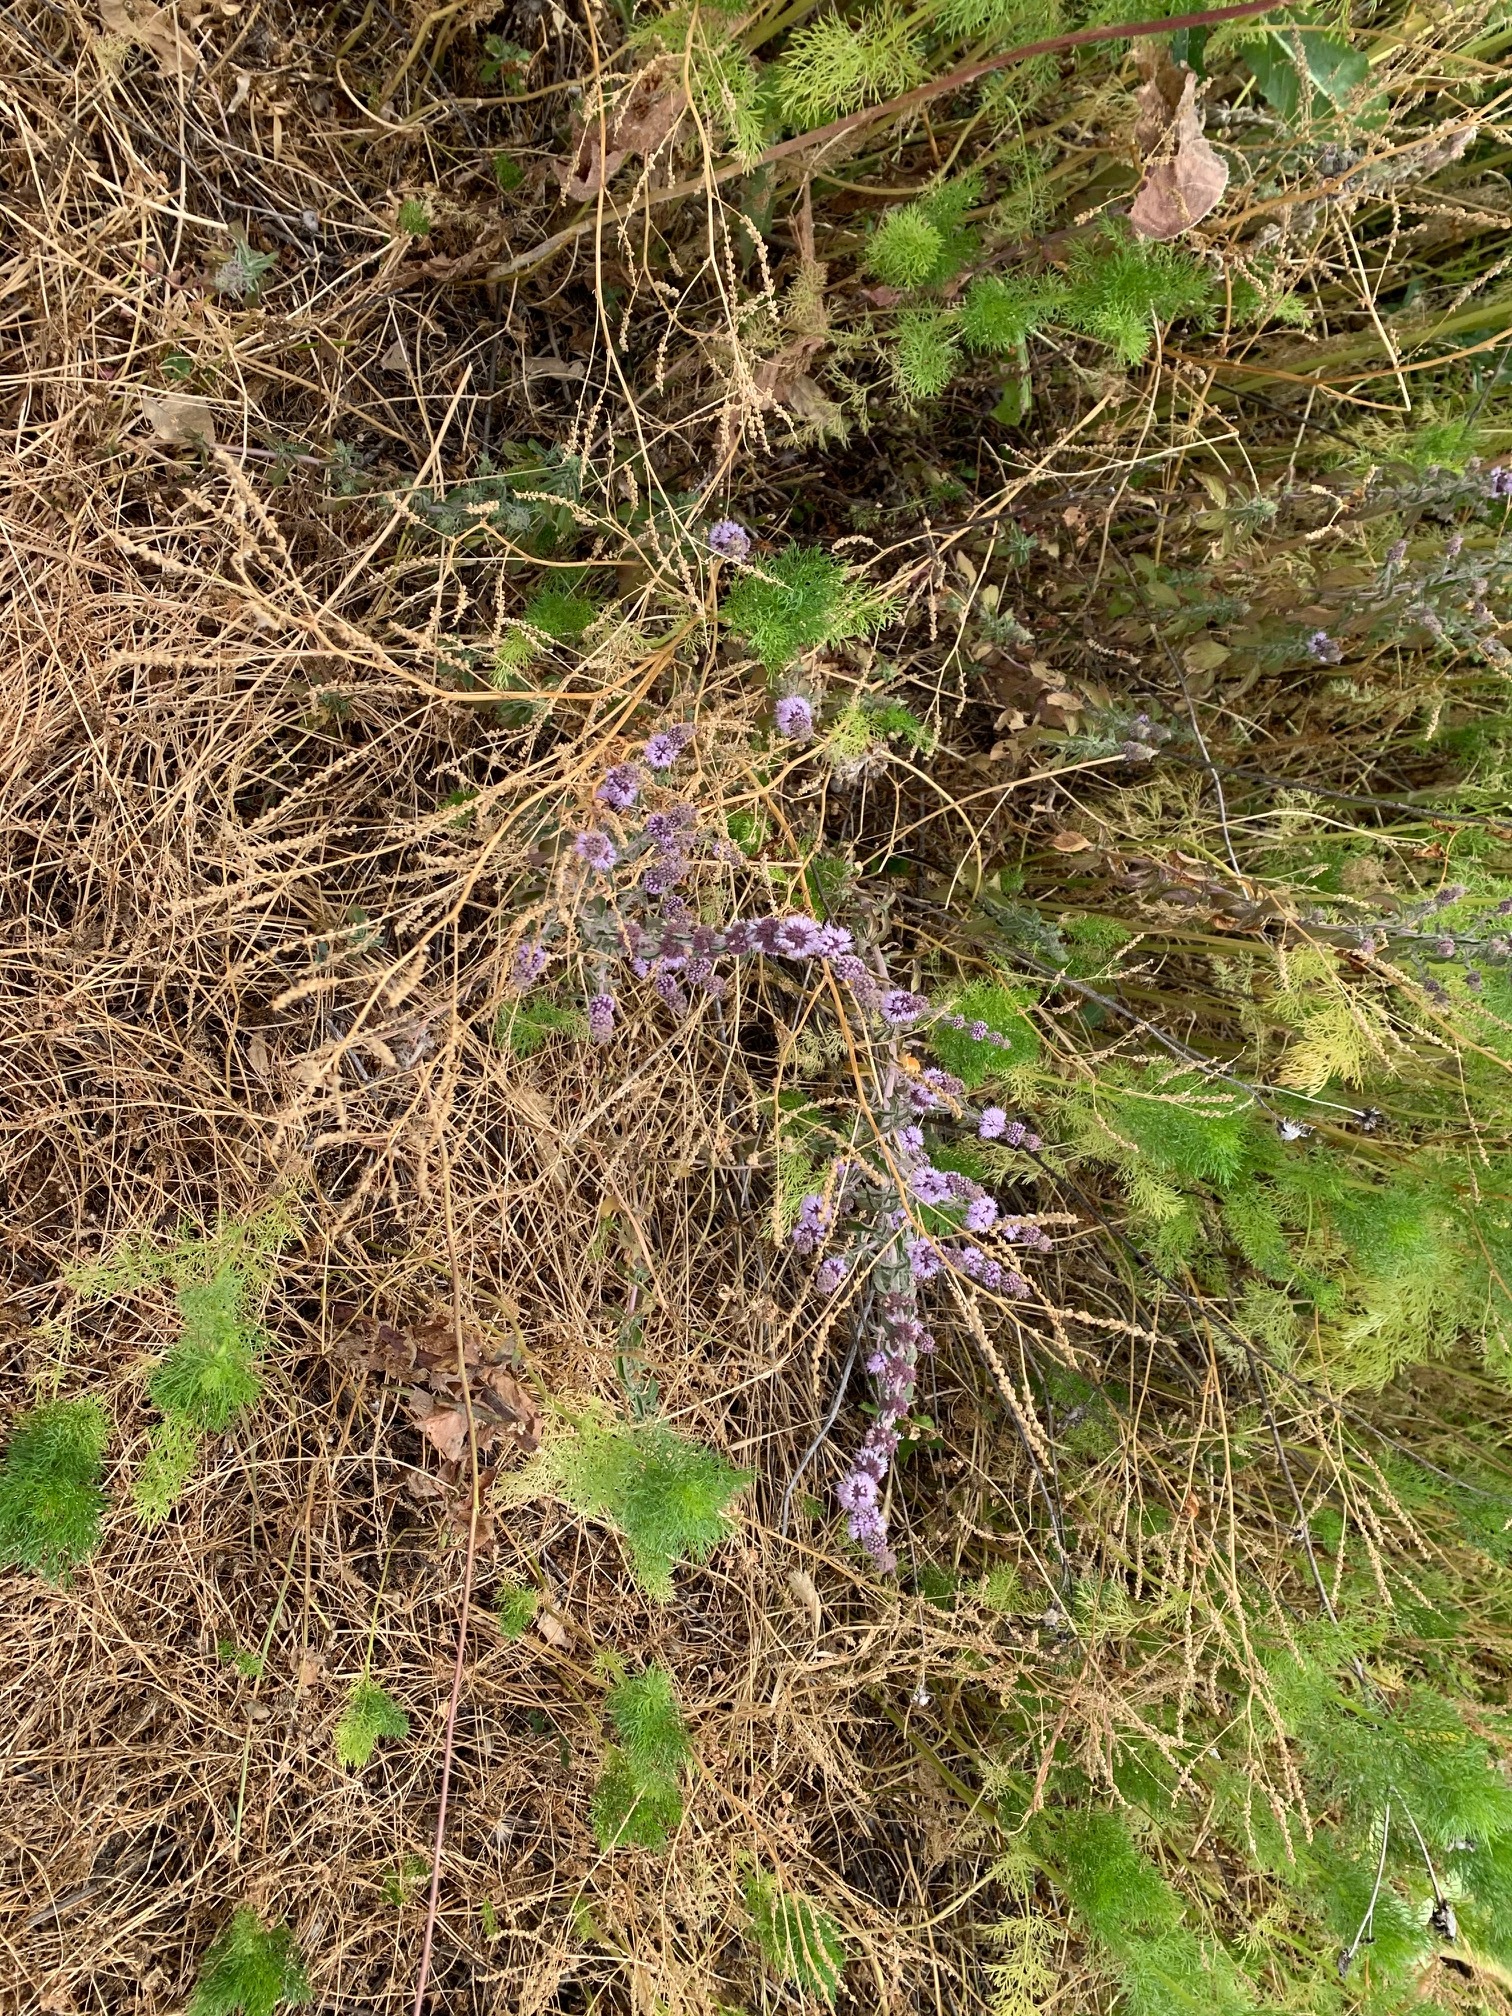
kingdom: Plantae
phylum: Tracheophyta
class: Magnoliopsida
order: Lamiales
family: Lamiaceae
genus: Mentha
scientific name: Mentha pulegium
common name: Pennyroyal
